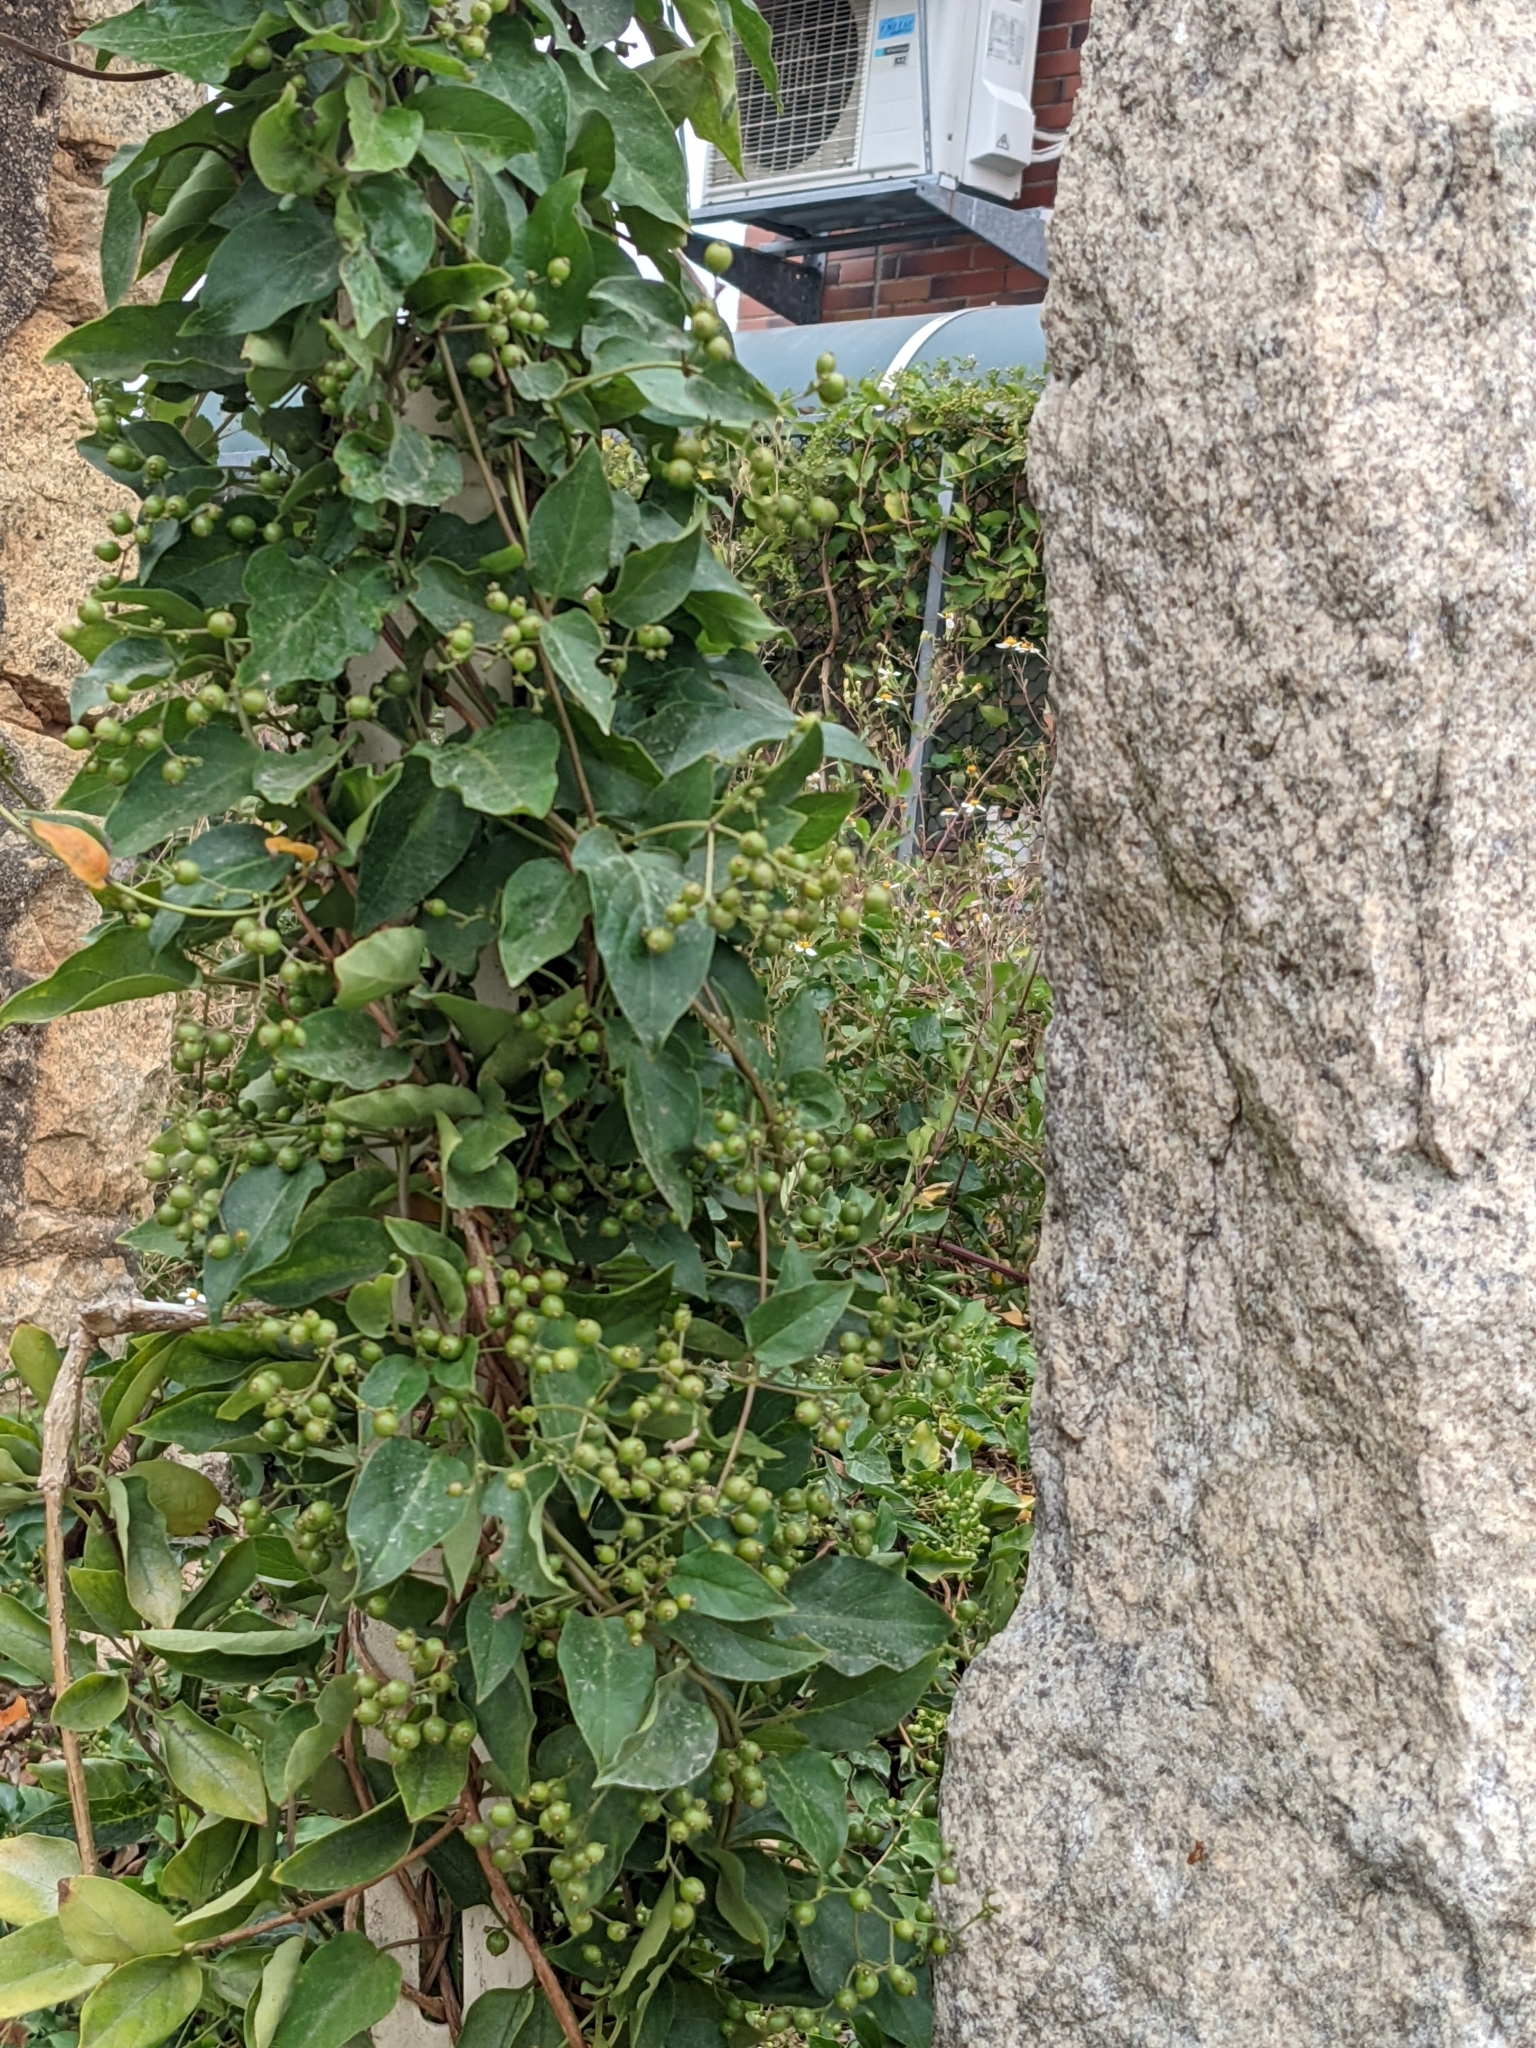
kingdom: Plantae
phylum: Tracheophyta
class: Magnoliopsida
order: Gentianales
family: Rubiaceae
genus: Paederia
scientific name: Paederia foetida
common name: Stinkvine
